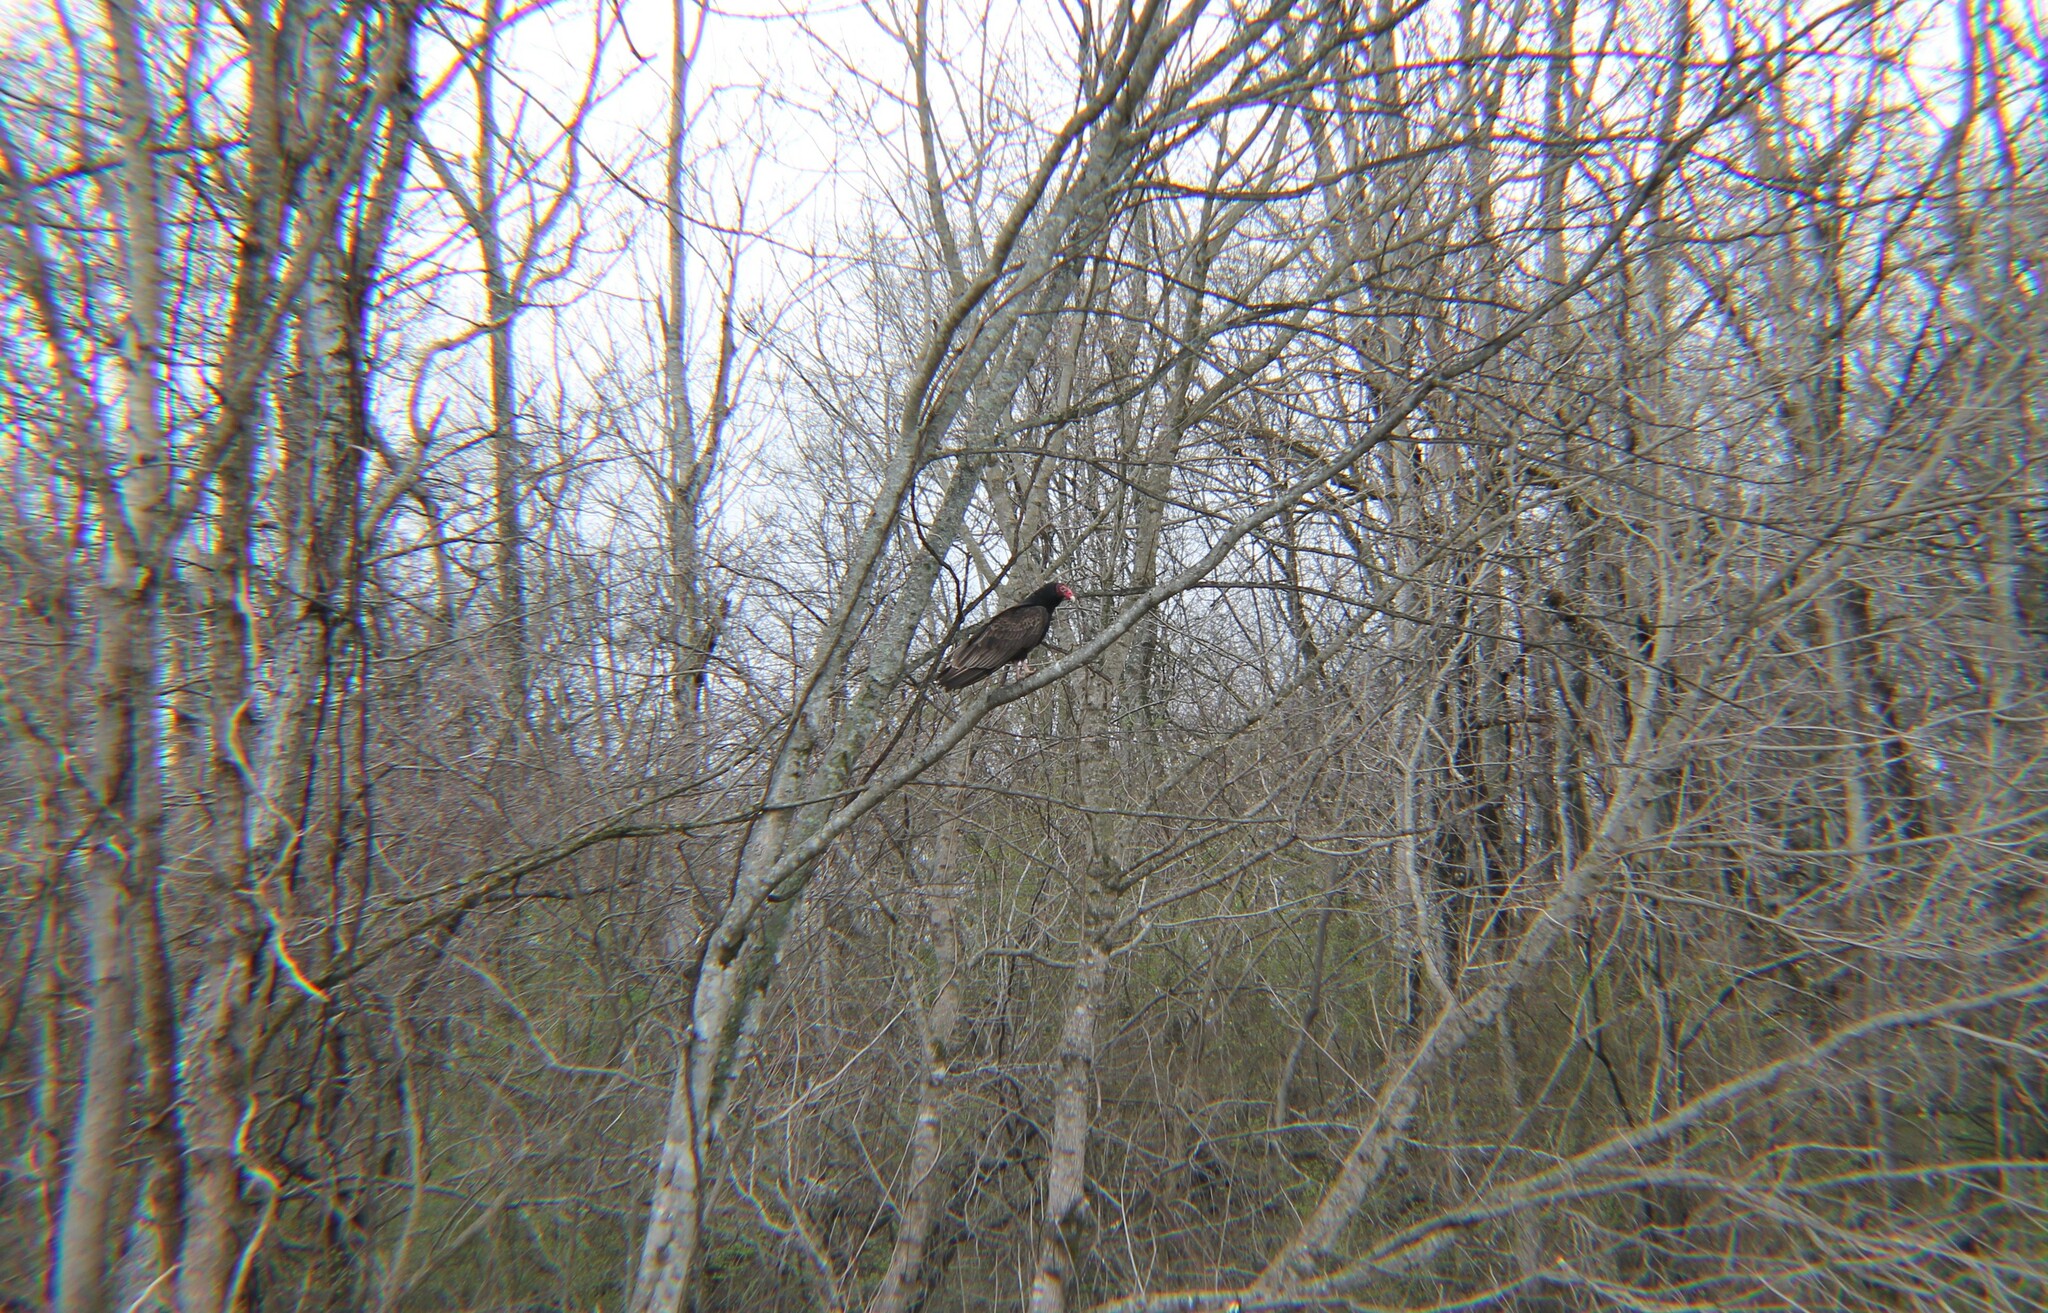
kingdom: Animalia
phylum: Chordata
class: Aves
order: Accipitriformes
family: Cathartidae
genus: Cathartes
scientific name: Cathartes aura
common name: Turkey vulture
